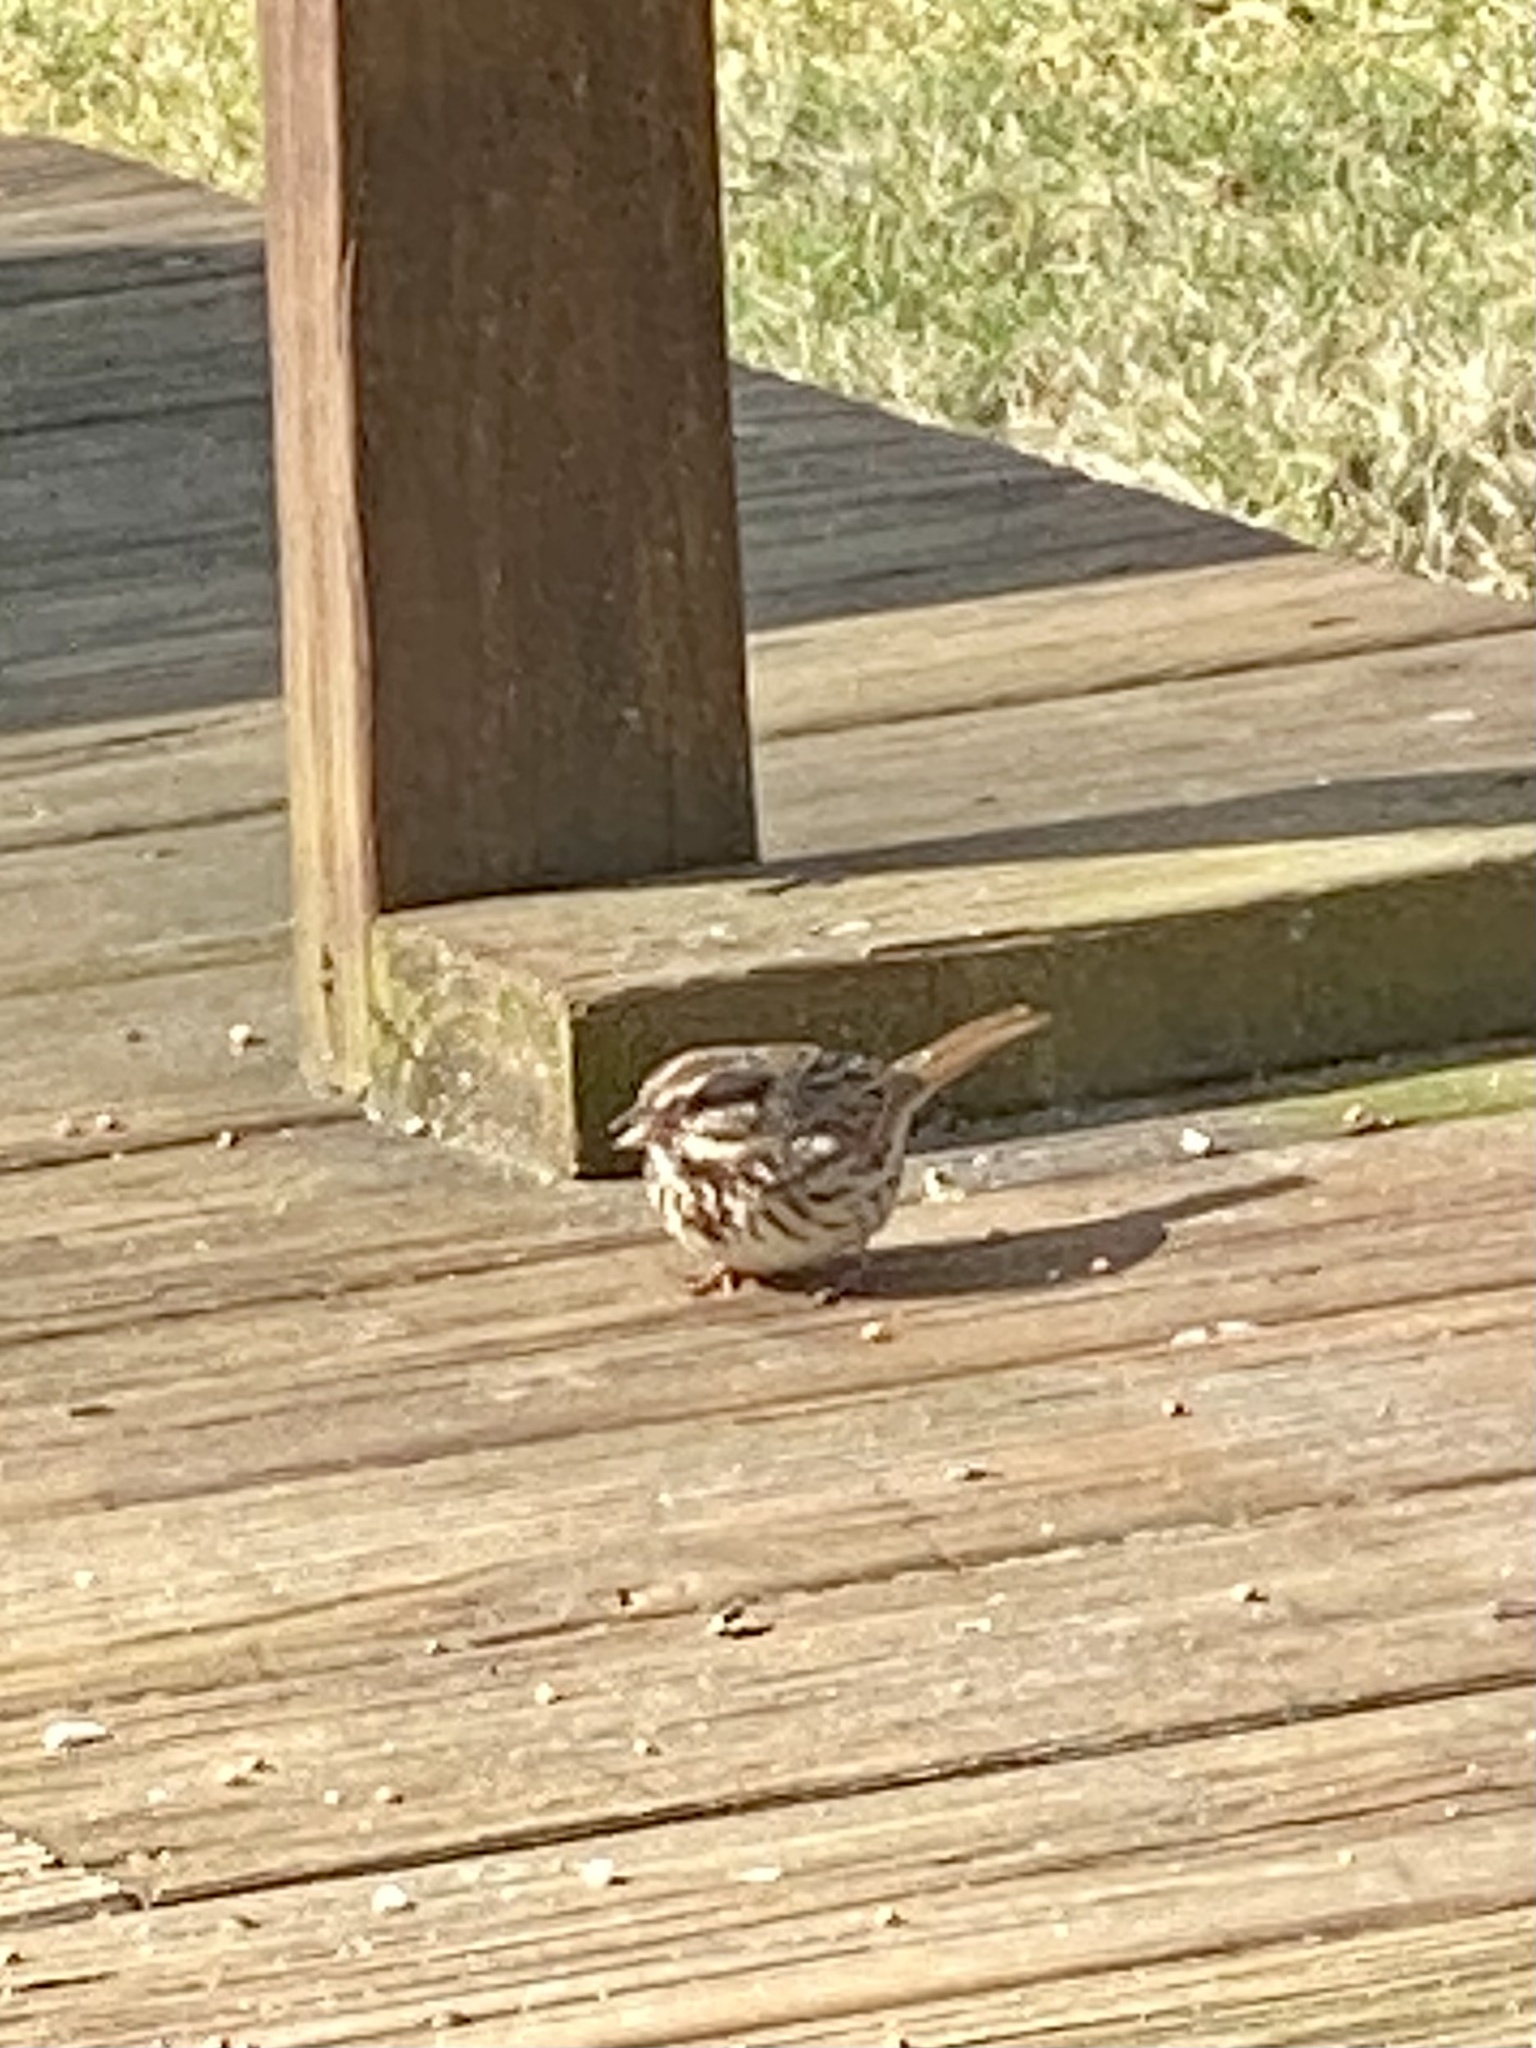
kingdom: Animalia
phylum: Chordata
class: Aves
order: Passeriformes
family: Passerellidae
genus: Melospiza
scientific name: Melospiza melodia
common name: Song sparrow
